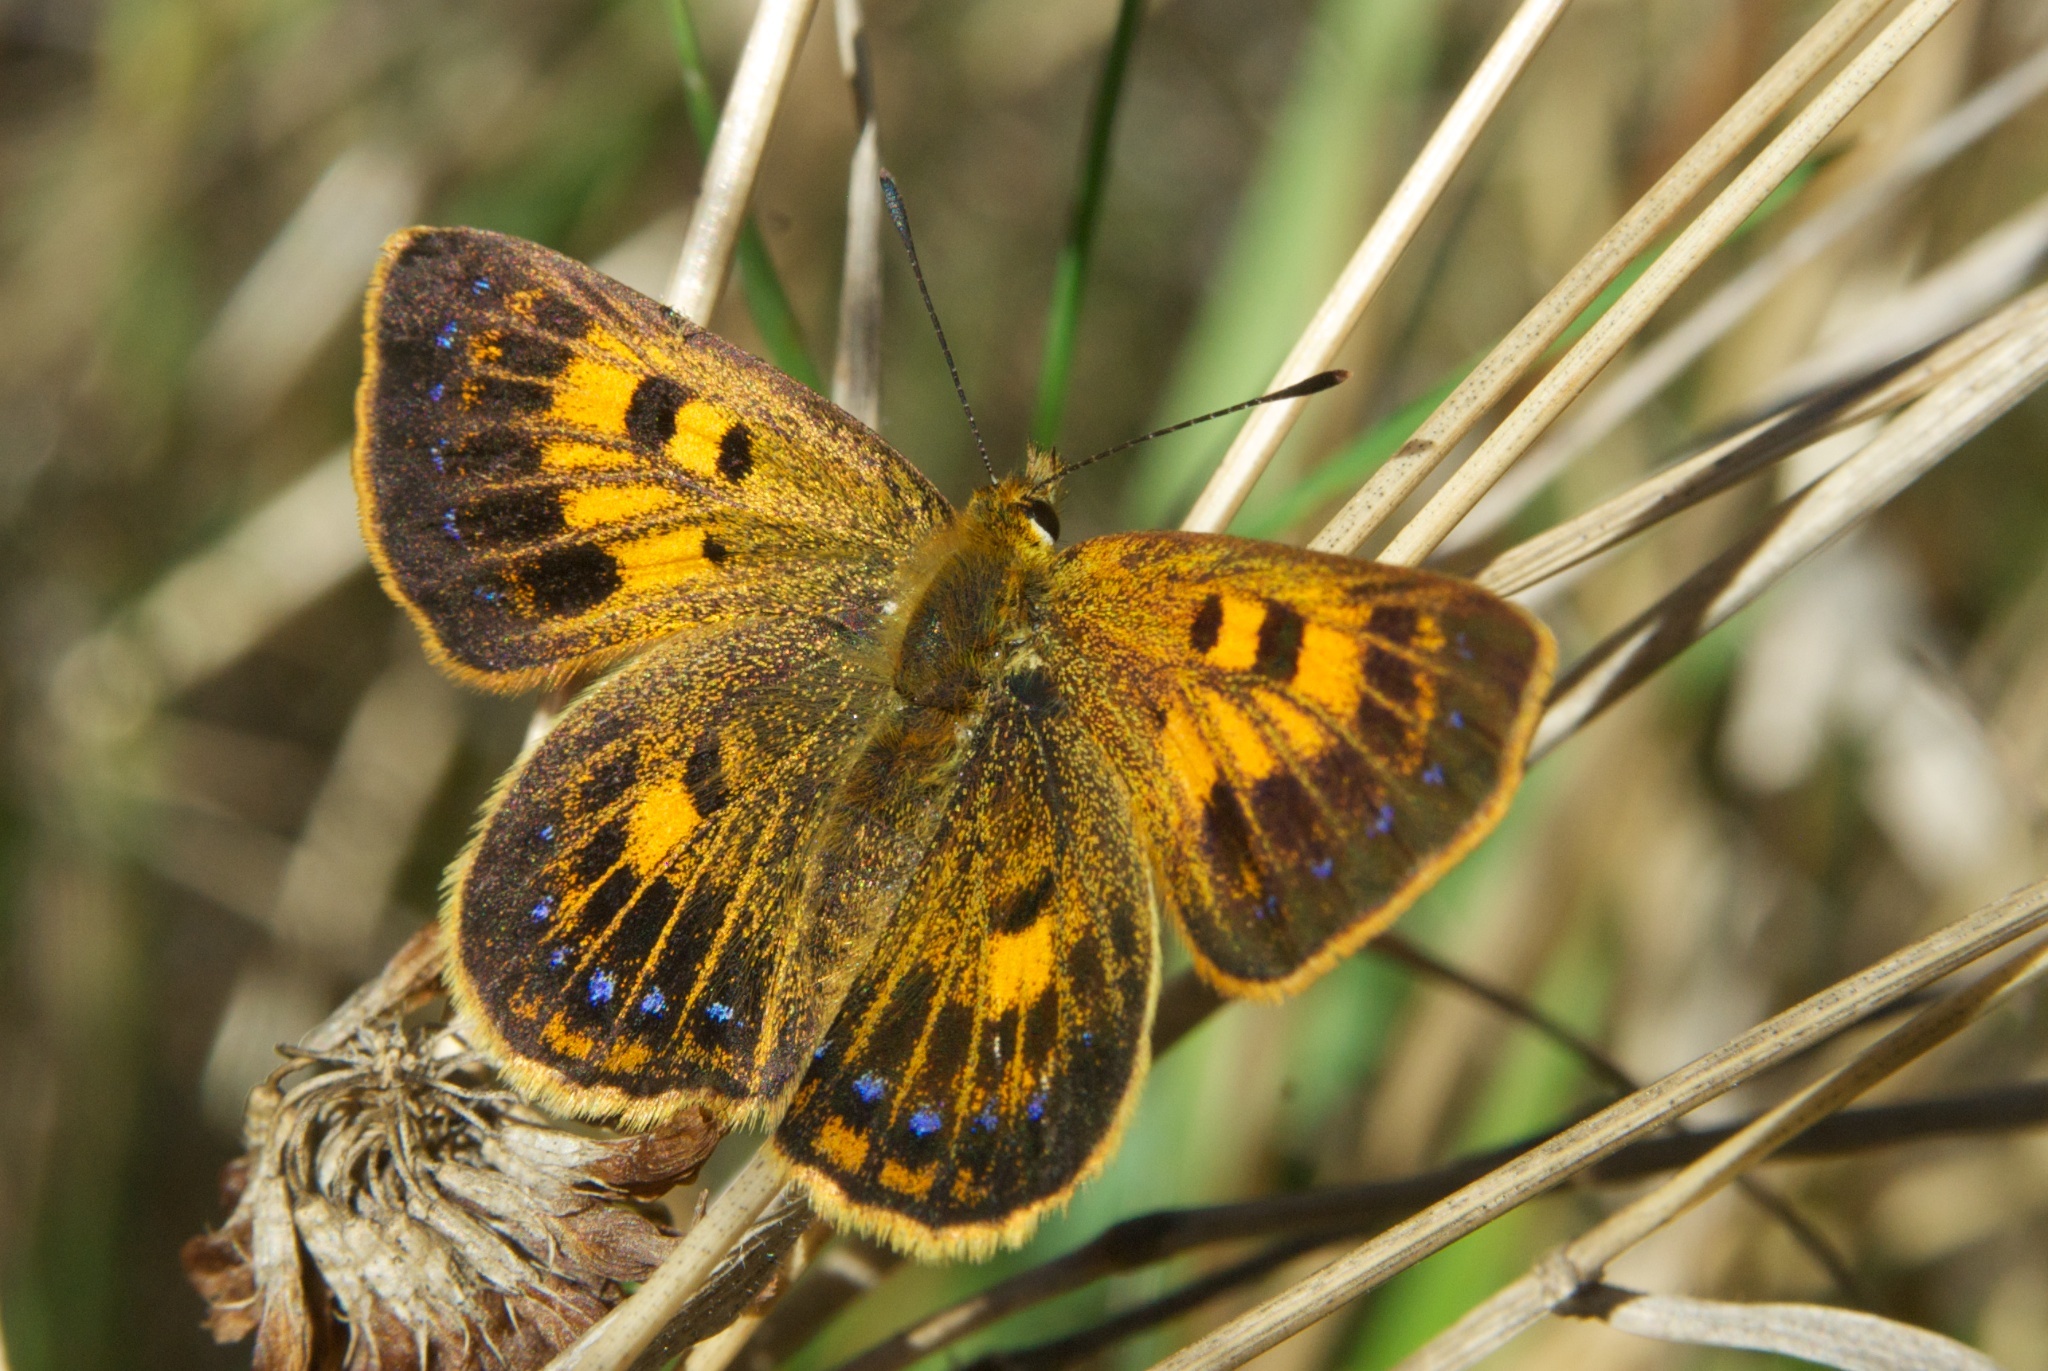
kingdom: Animalia
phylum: Arthropoda
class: Insecta
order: Lepidoptera
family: Lycaenidae
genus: Lycaena
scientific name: Lycaena salustius
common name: North island coastal copper
